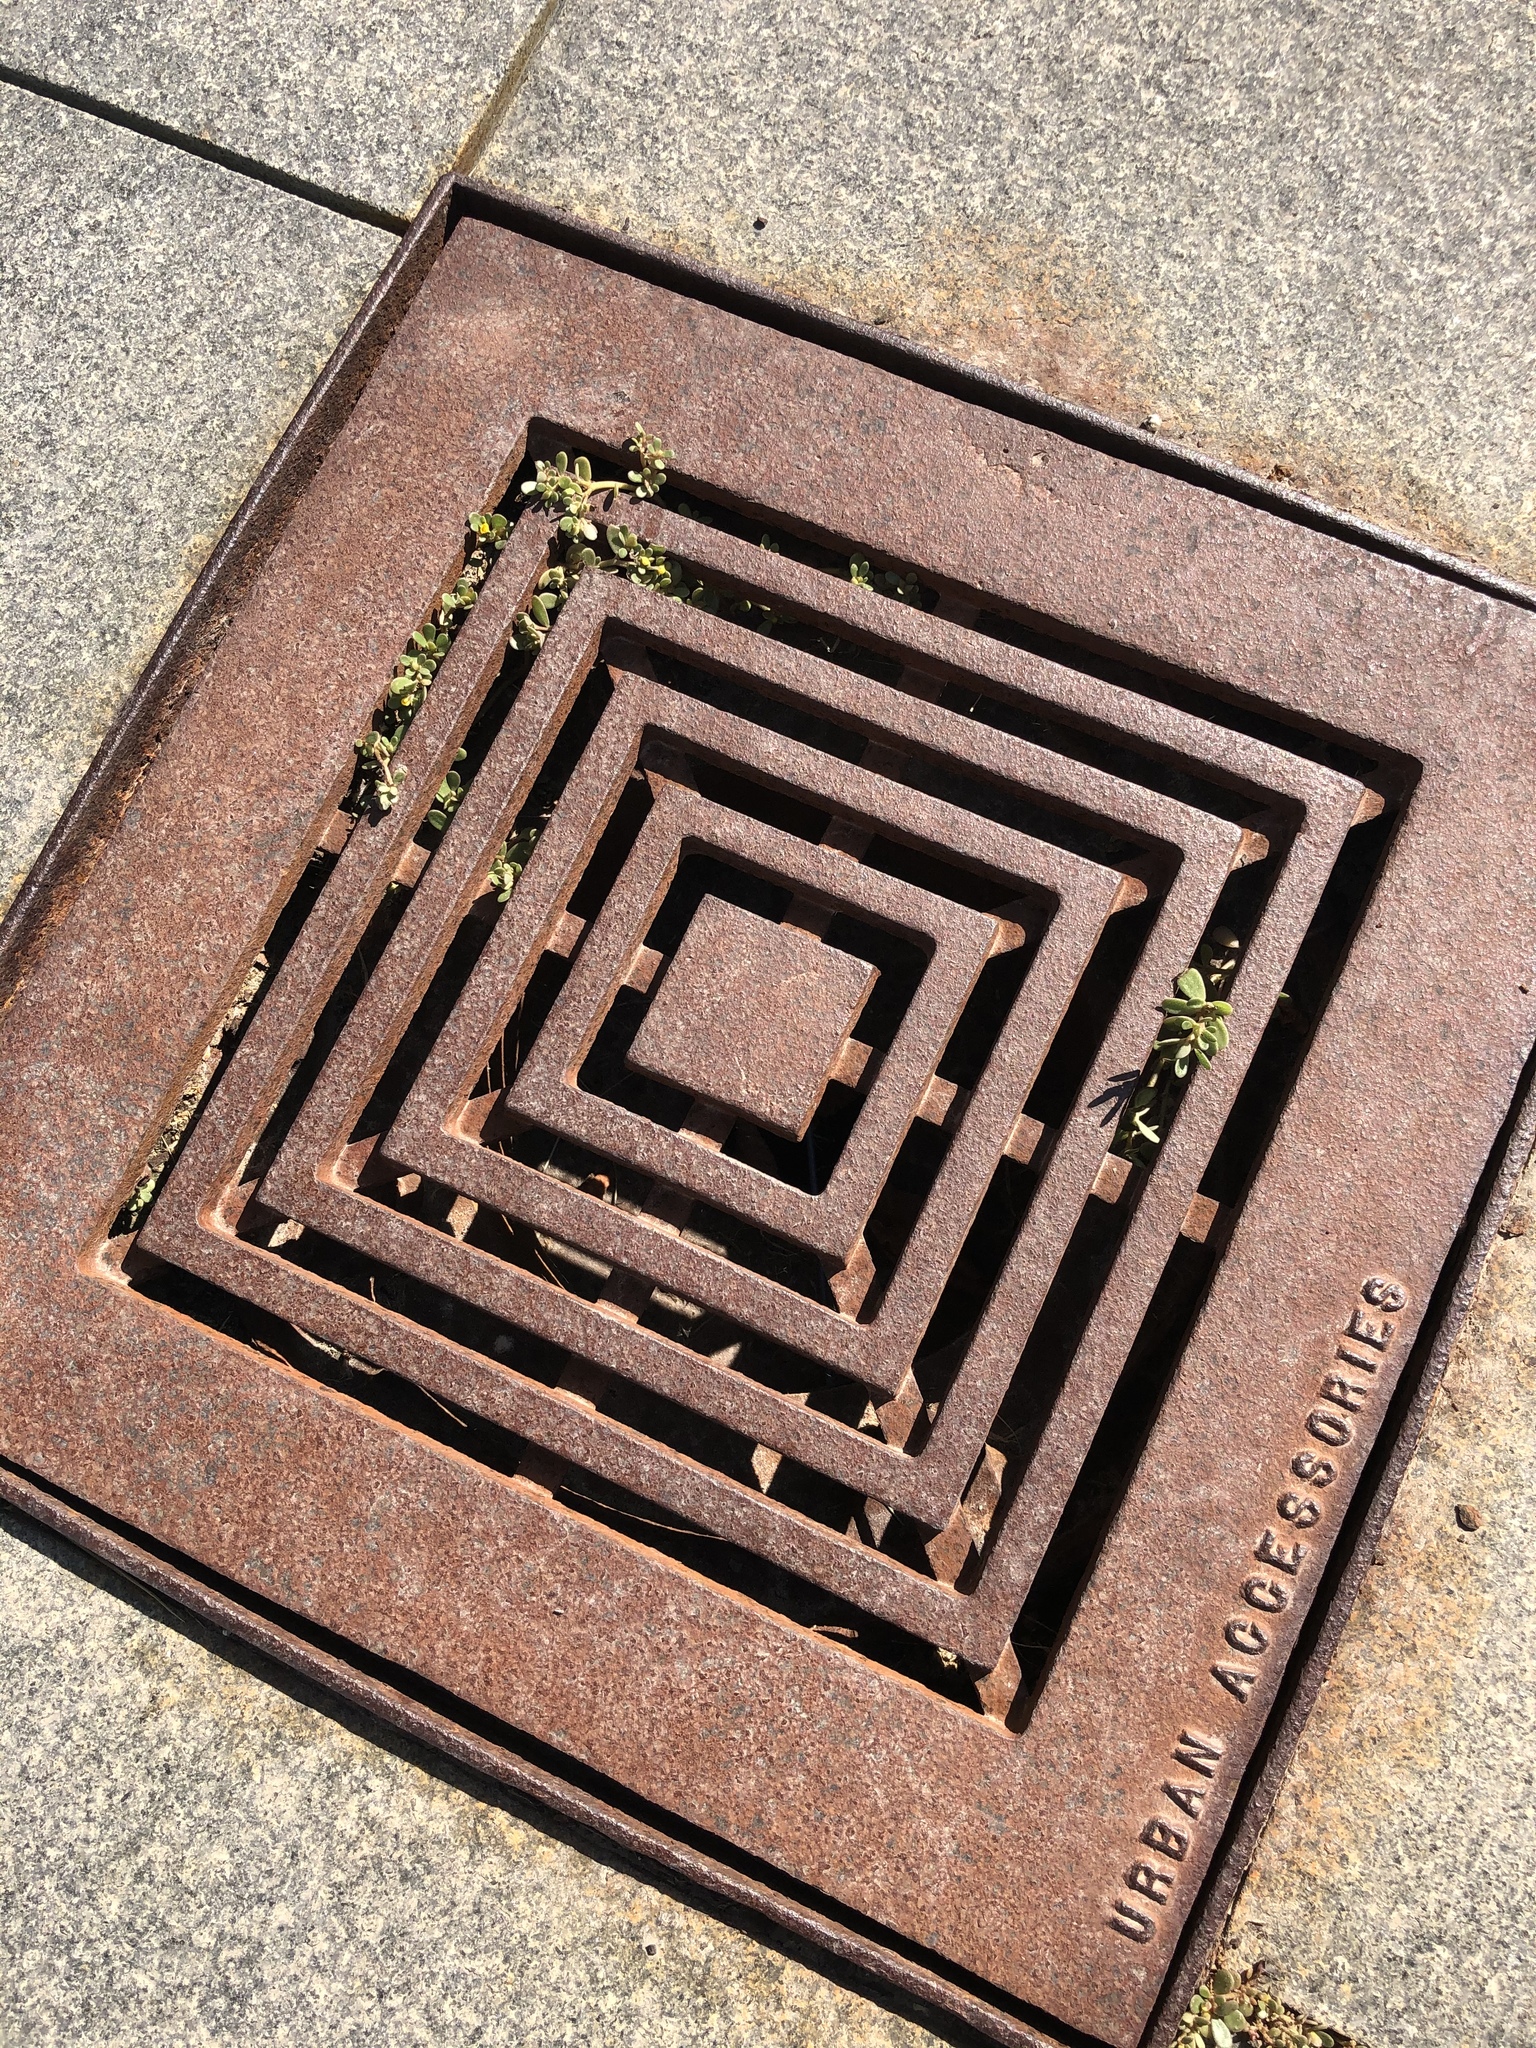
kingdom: Plantae
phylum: Tracheophyta
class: Magnoliopsida
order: Caryophyllales
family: Portulacaceae
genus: Portulaca
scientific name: Portulaca oleracea
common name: Common purslane
